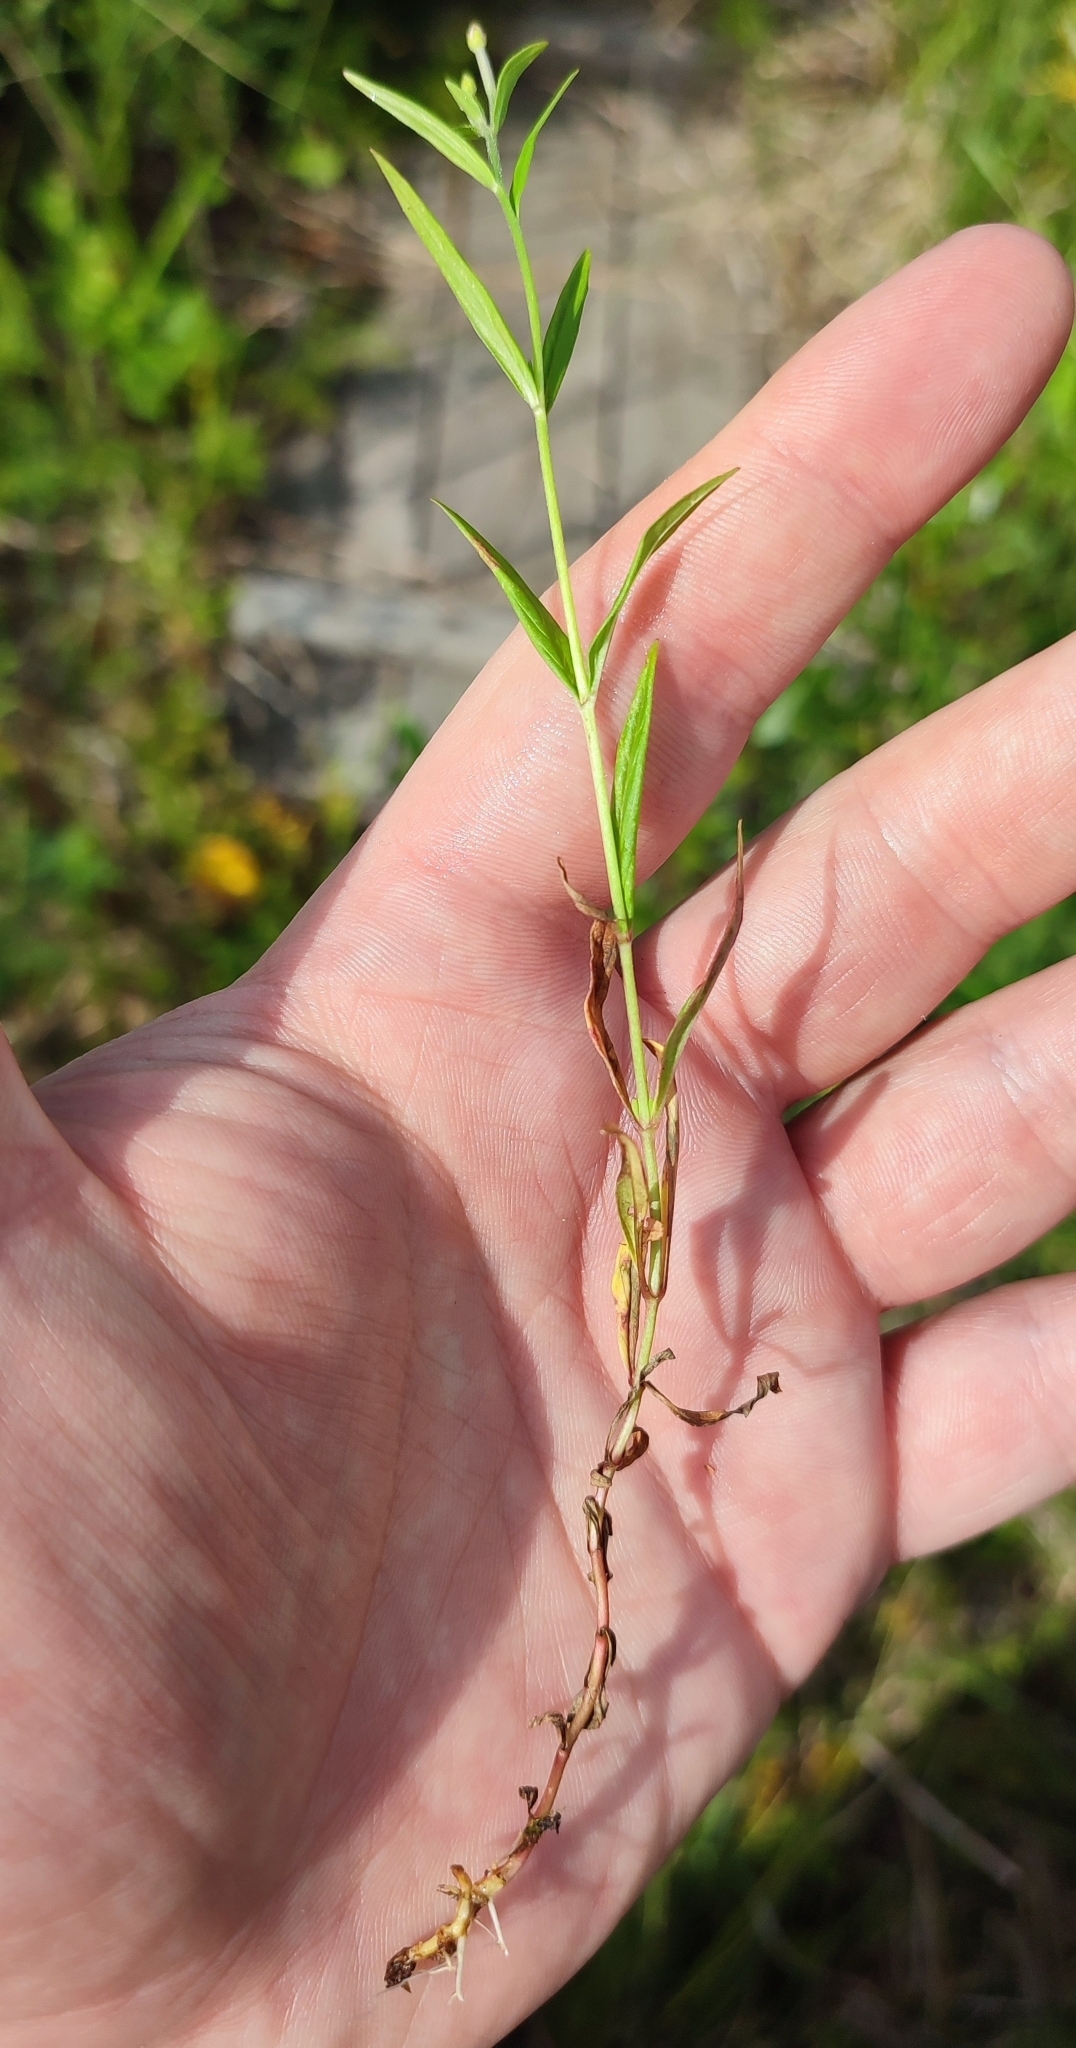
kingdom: Plantae
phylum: Tracheophyta
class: Magnoliopsida
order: Myrtales
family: Onagraceae
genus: Epilobium
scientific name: Epilobium palustre
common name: Marsh willowherb
